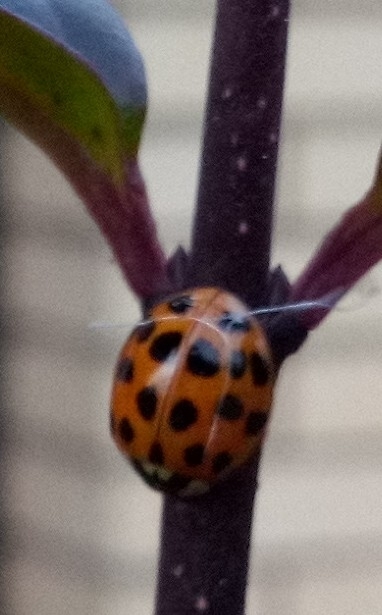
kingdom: Animalia
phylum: Arthropoda
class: Insecta
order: Coleoptera
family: Coccinellidae
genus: Harmonia
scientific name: Harmonia axyridis
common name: Harlequin ladybird
